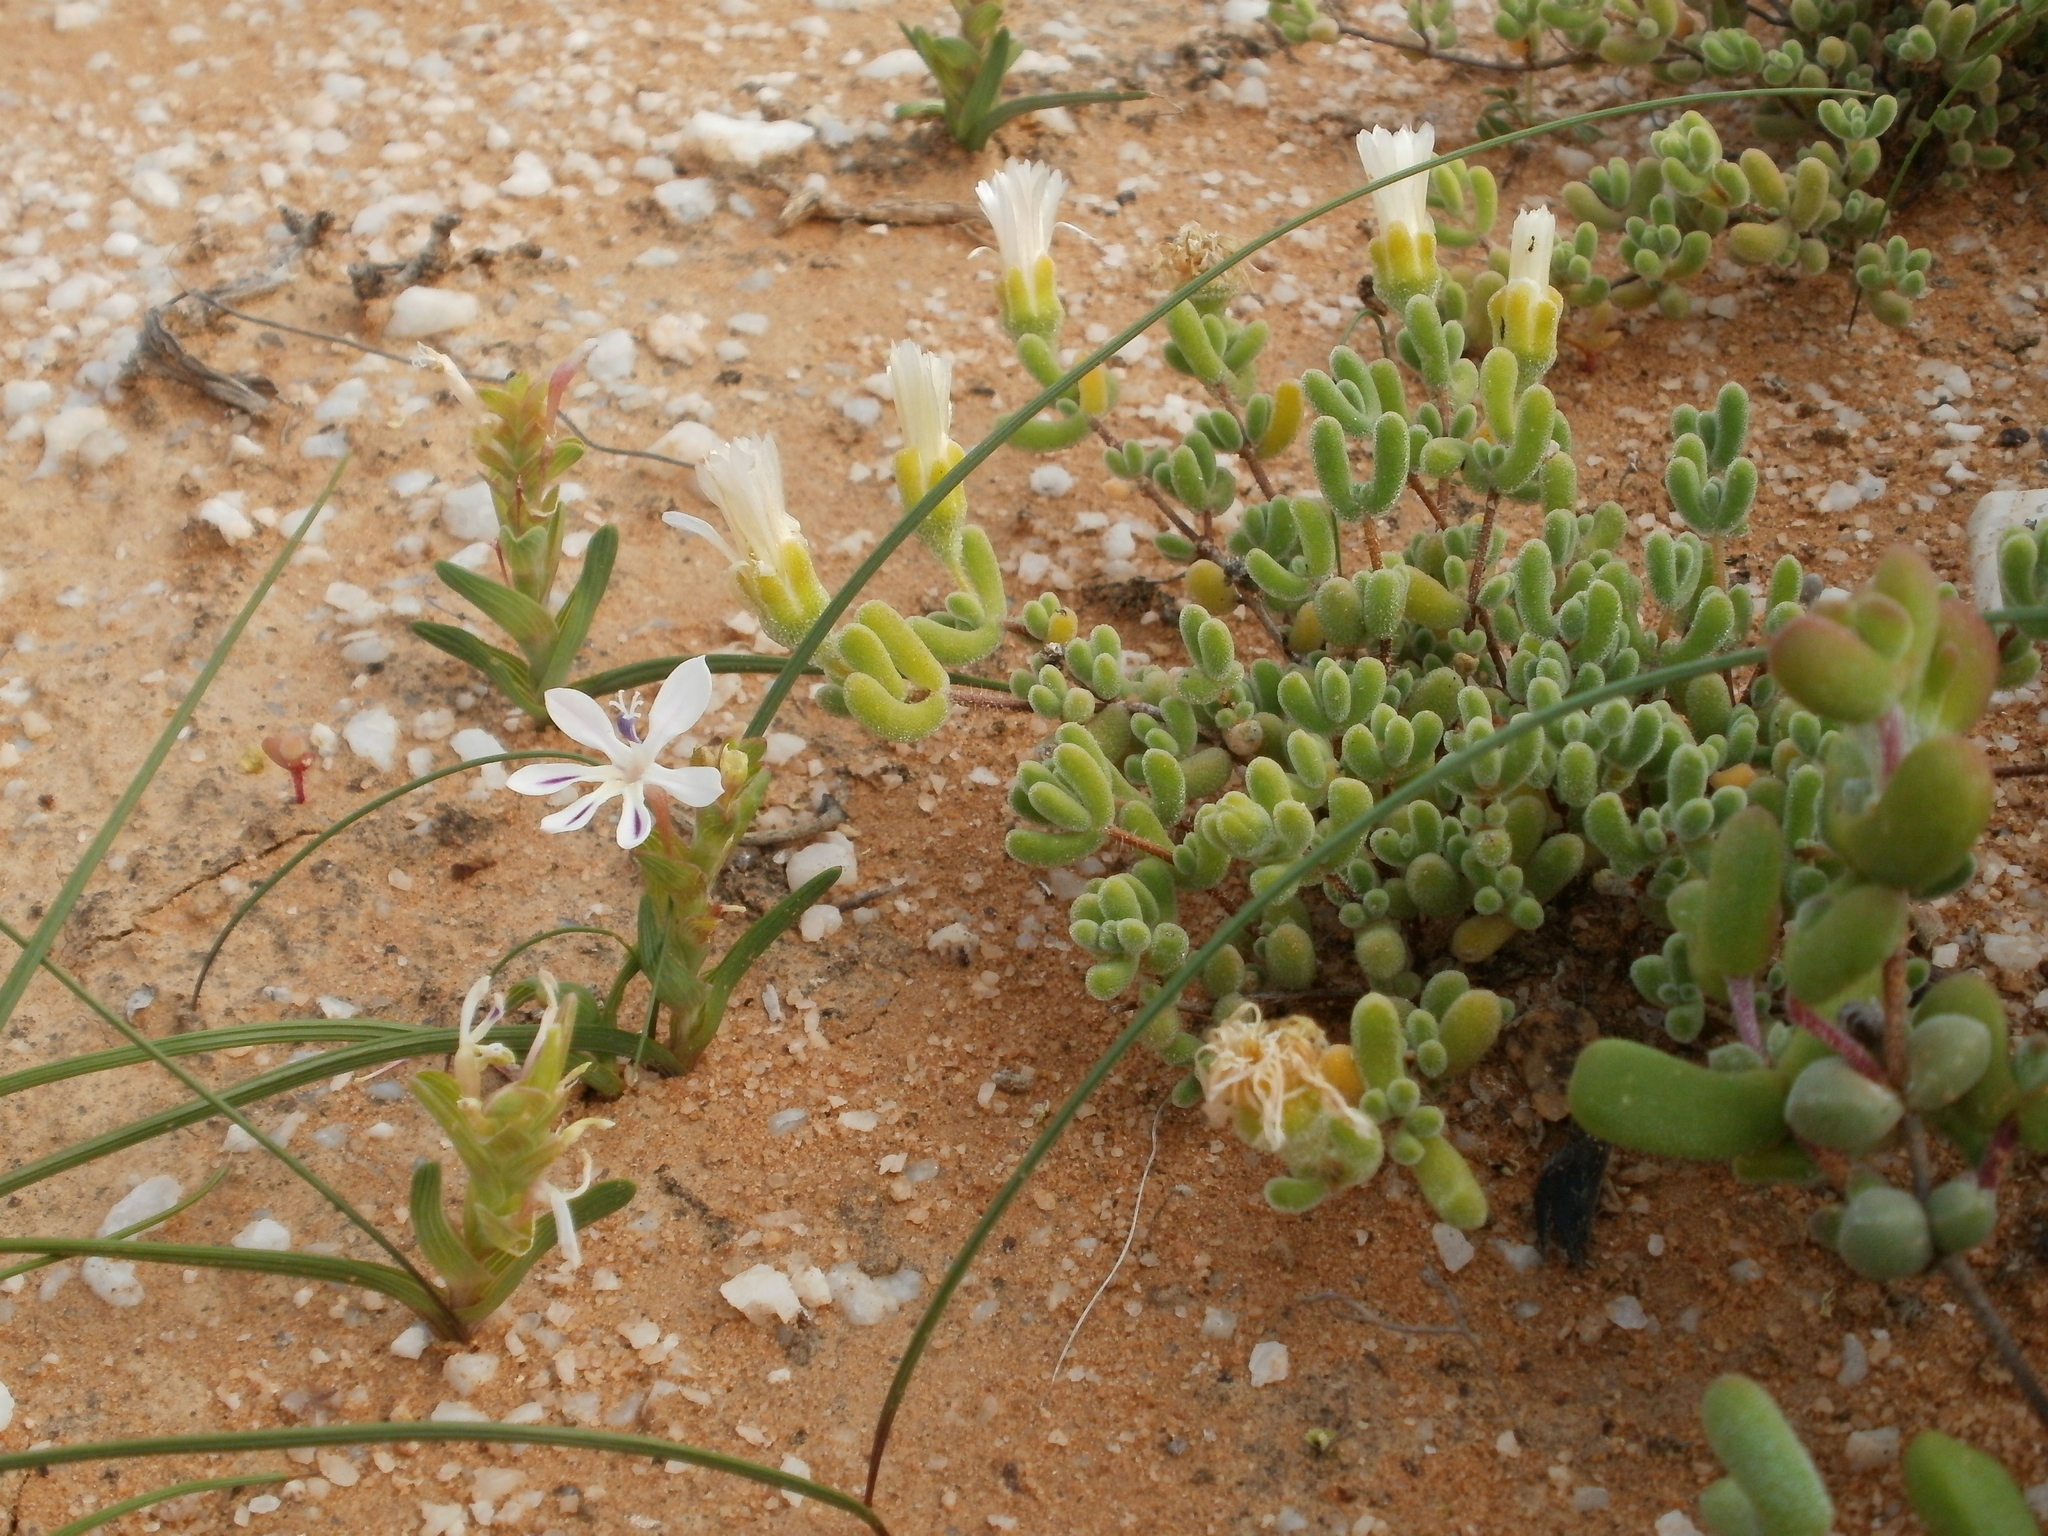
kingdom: Plantae
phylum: Tracheophyta
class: Liliopsida
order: Asparagales
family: Iridaceae
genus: Lapeirousia
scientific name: Lapeirousia angustifolia
